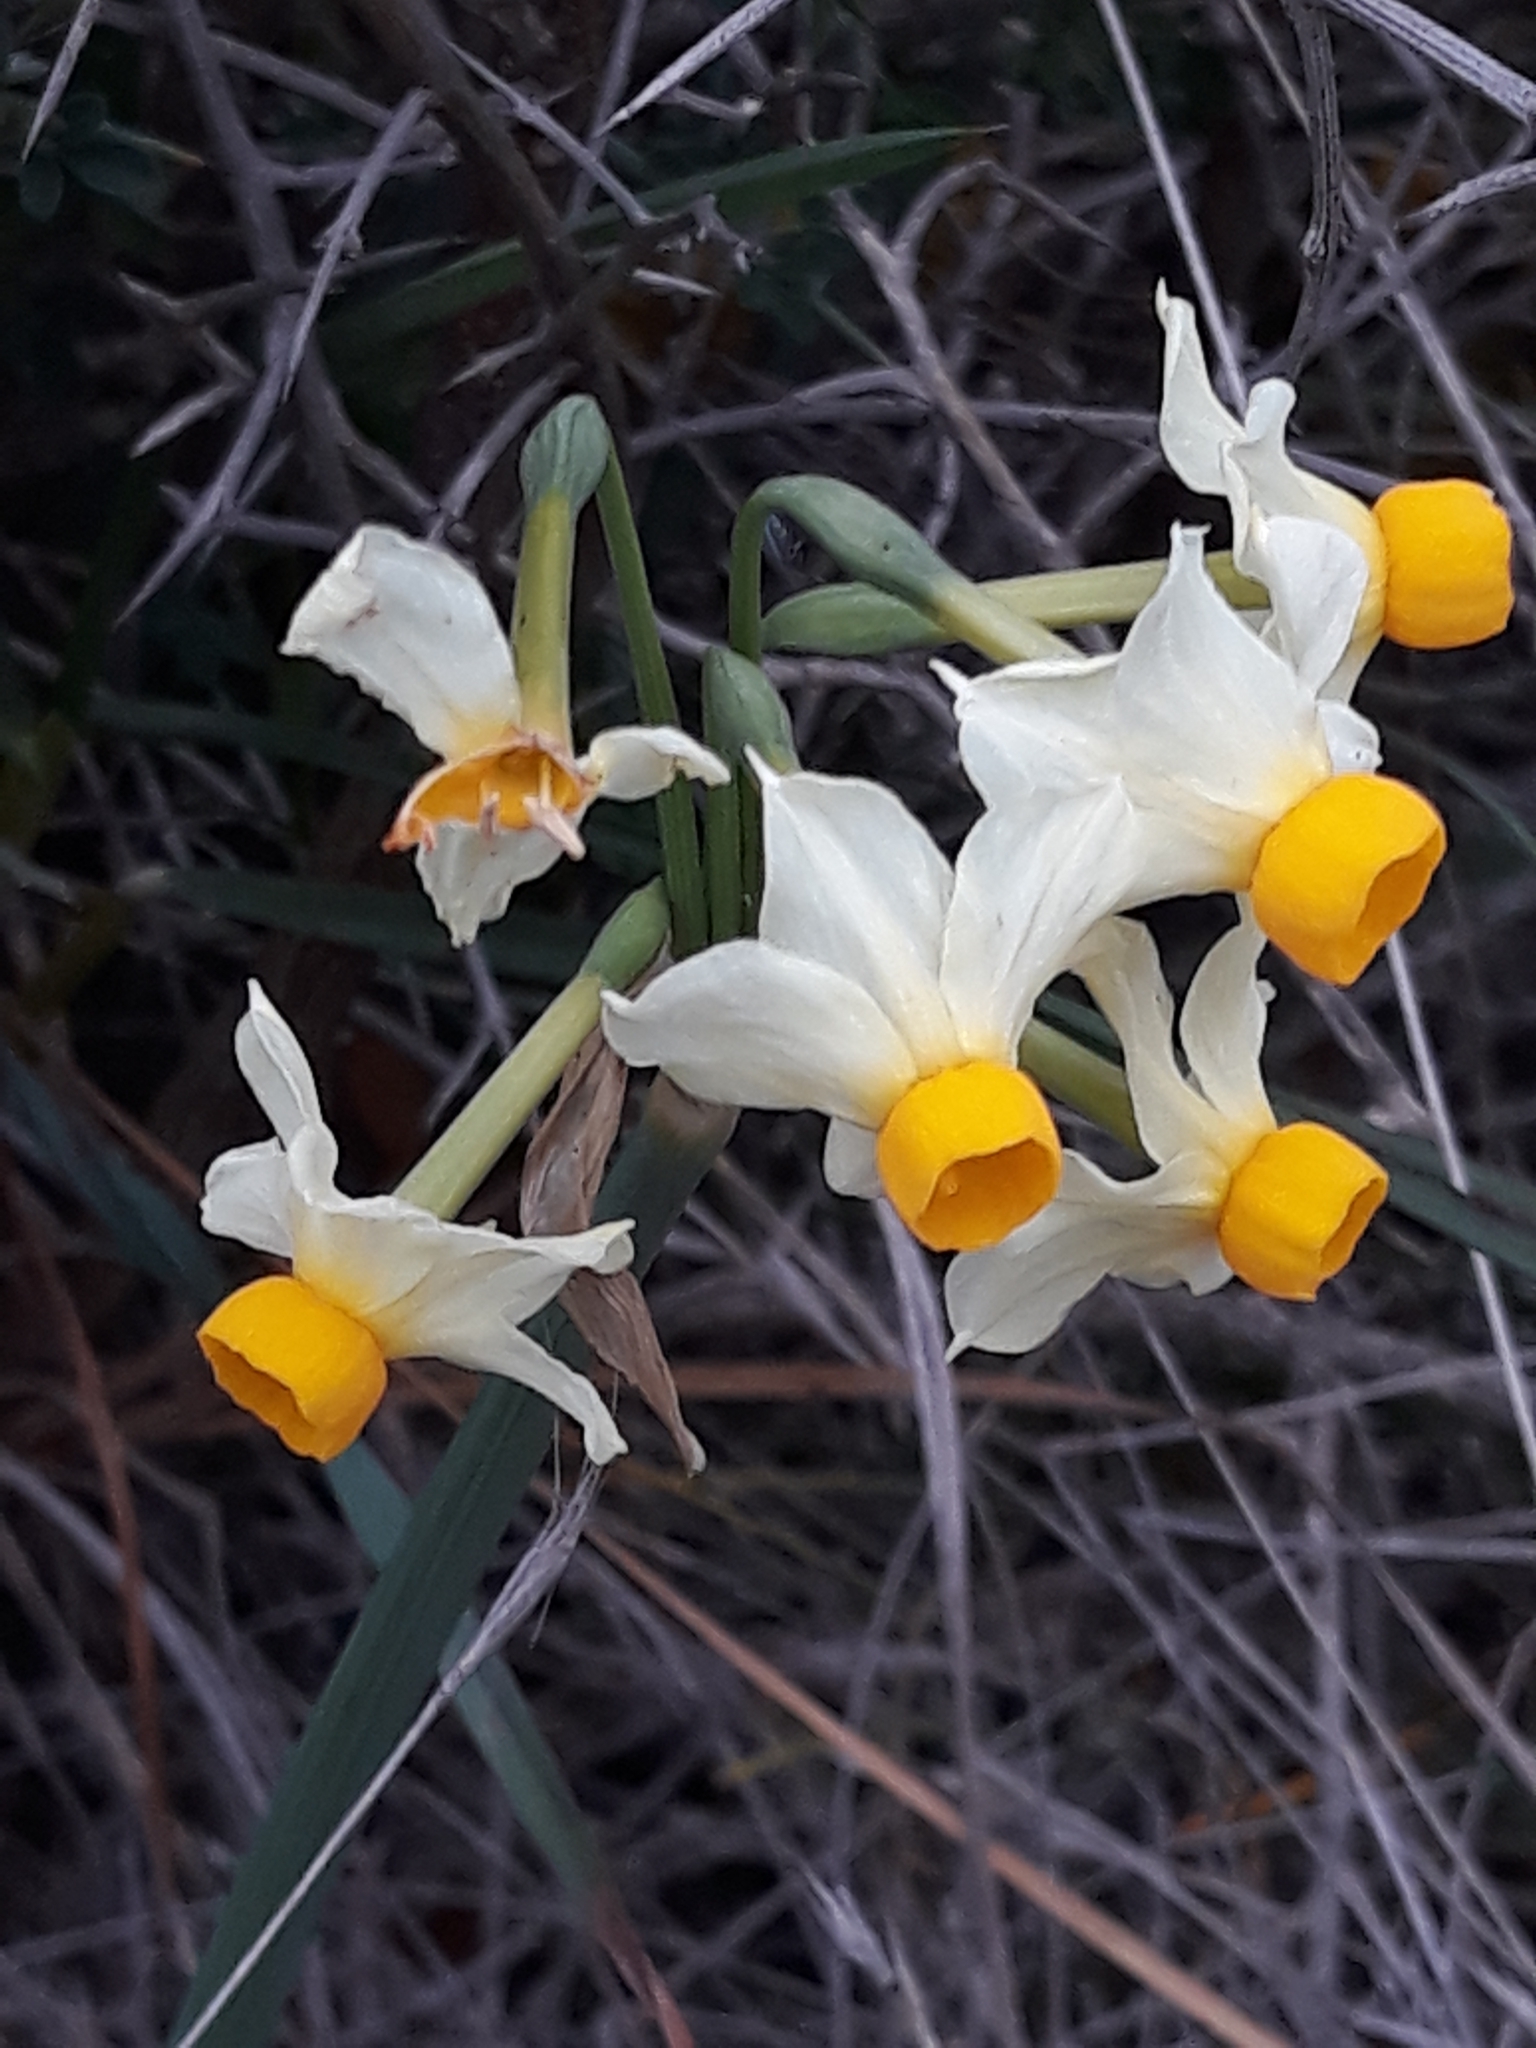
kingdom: Plantae
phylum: Tracheophyta
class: Liliopsida
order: Asparagales
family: Amaryllidaceae
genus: Narcissus
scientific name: Narcissus tazetta
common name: Bunch-flowered daffodil
